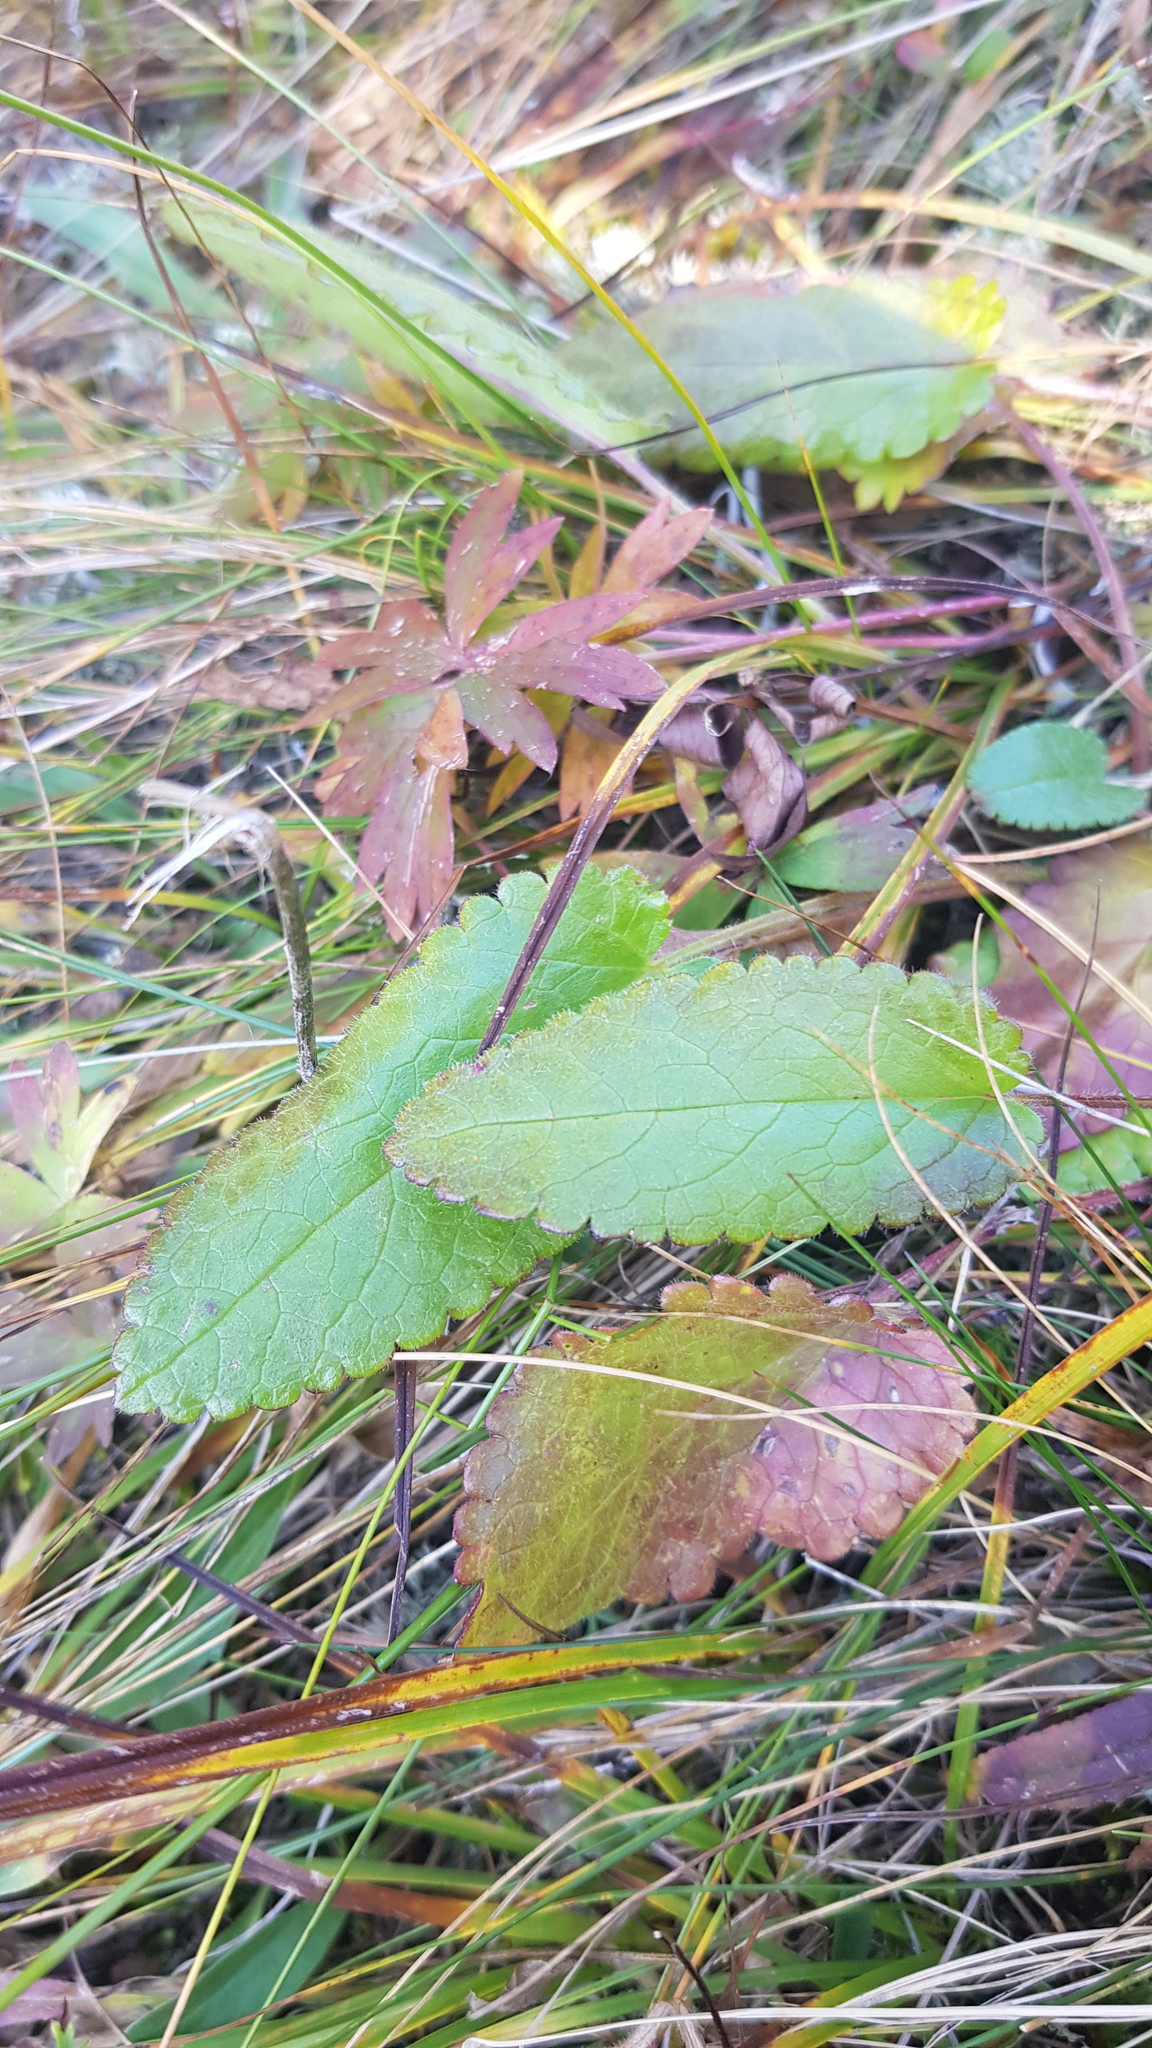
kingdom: Plantae
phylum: Tracheophyta
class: Magnoliopsida
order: Lamiales
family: Lamiaceae
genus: Dracocephalum
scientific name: Dracocephalum grandiflorum
